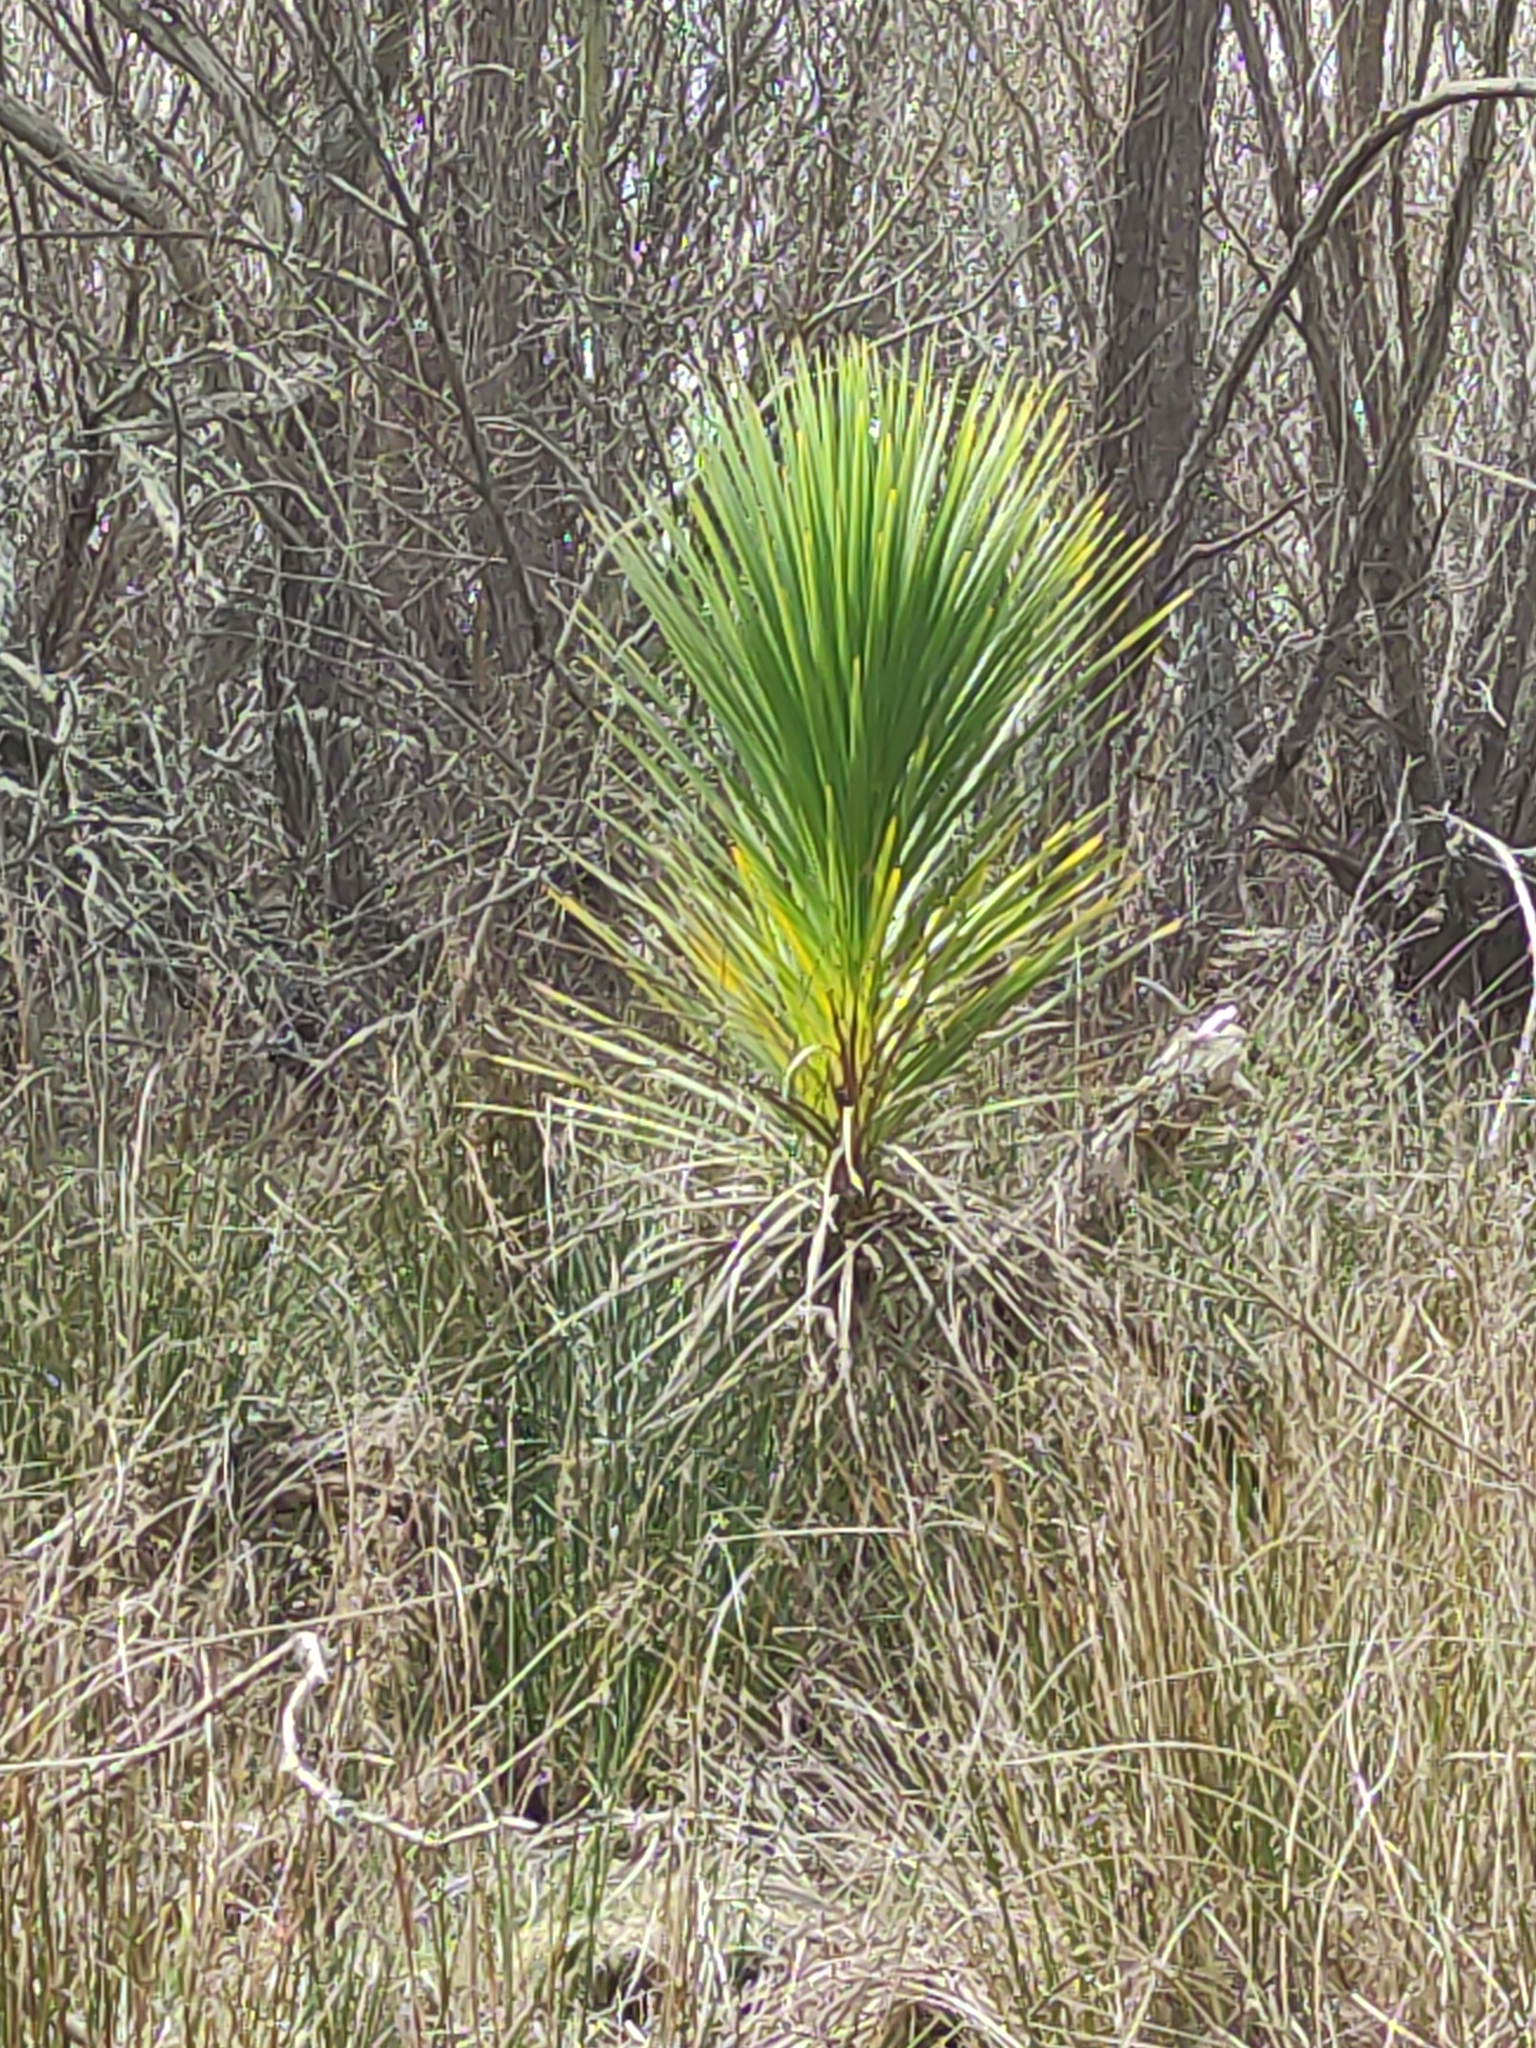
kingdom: Plantae
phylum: Tracheophyta
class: Liliopsida
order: Asparagales
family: Asparagaceae
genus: Cordyline
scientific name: Cordyline australis
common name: Cabbage-palm
